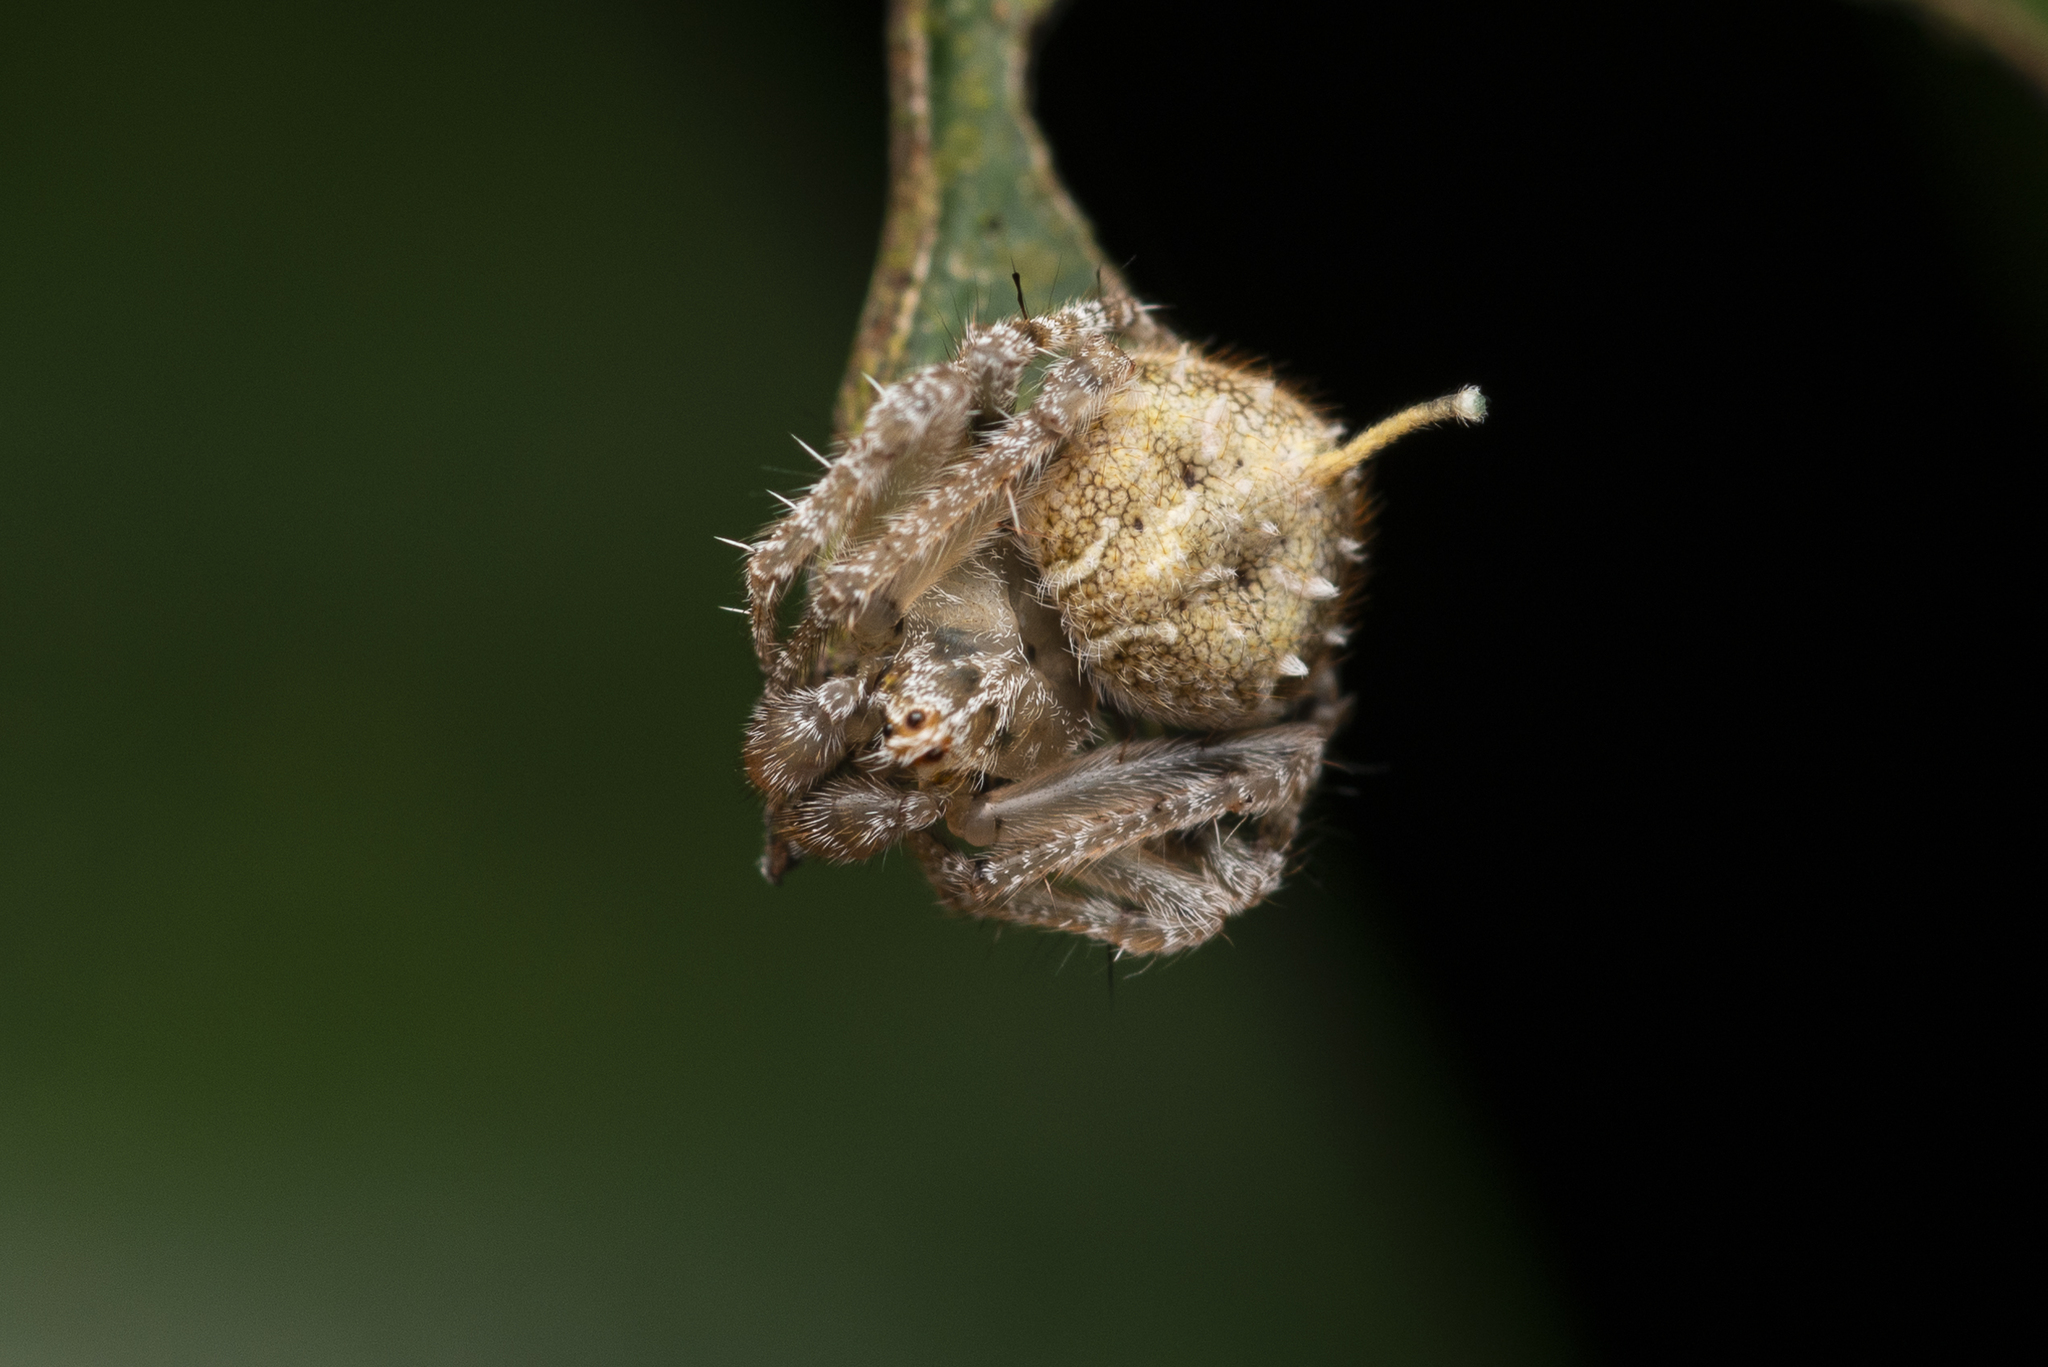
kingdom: Animalia
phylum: Arthropoda
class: Arachnida
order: Araneae
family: Araneidae
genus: Eriovixia
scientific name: Eriovixia laglaizei
